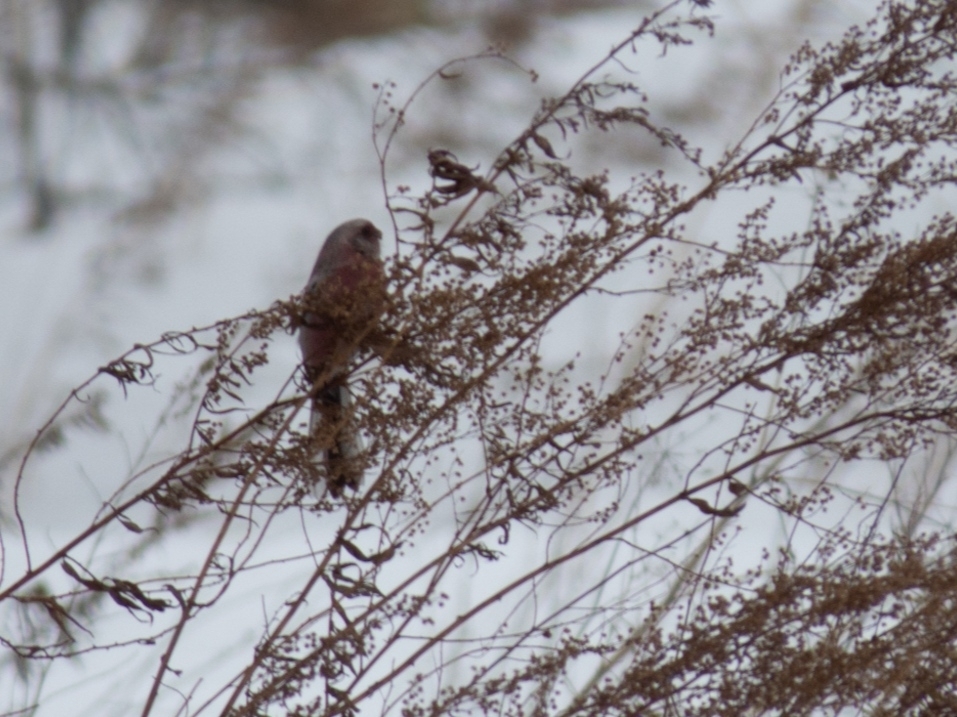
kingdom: Animalia
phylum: Chordata
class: Aves
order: Passeriformes
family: Fringillidae
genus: Carpodacus
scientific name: Carpodacus sibiricus
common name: Long-tailed rosefinch
